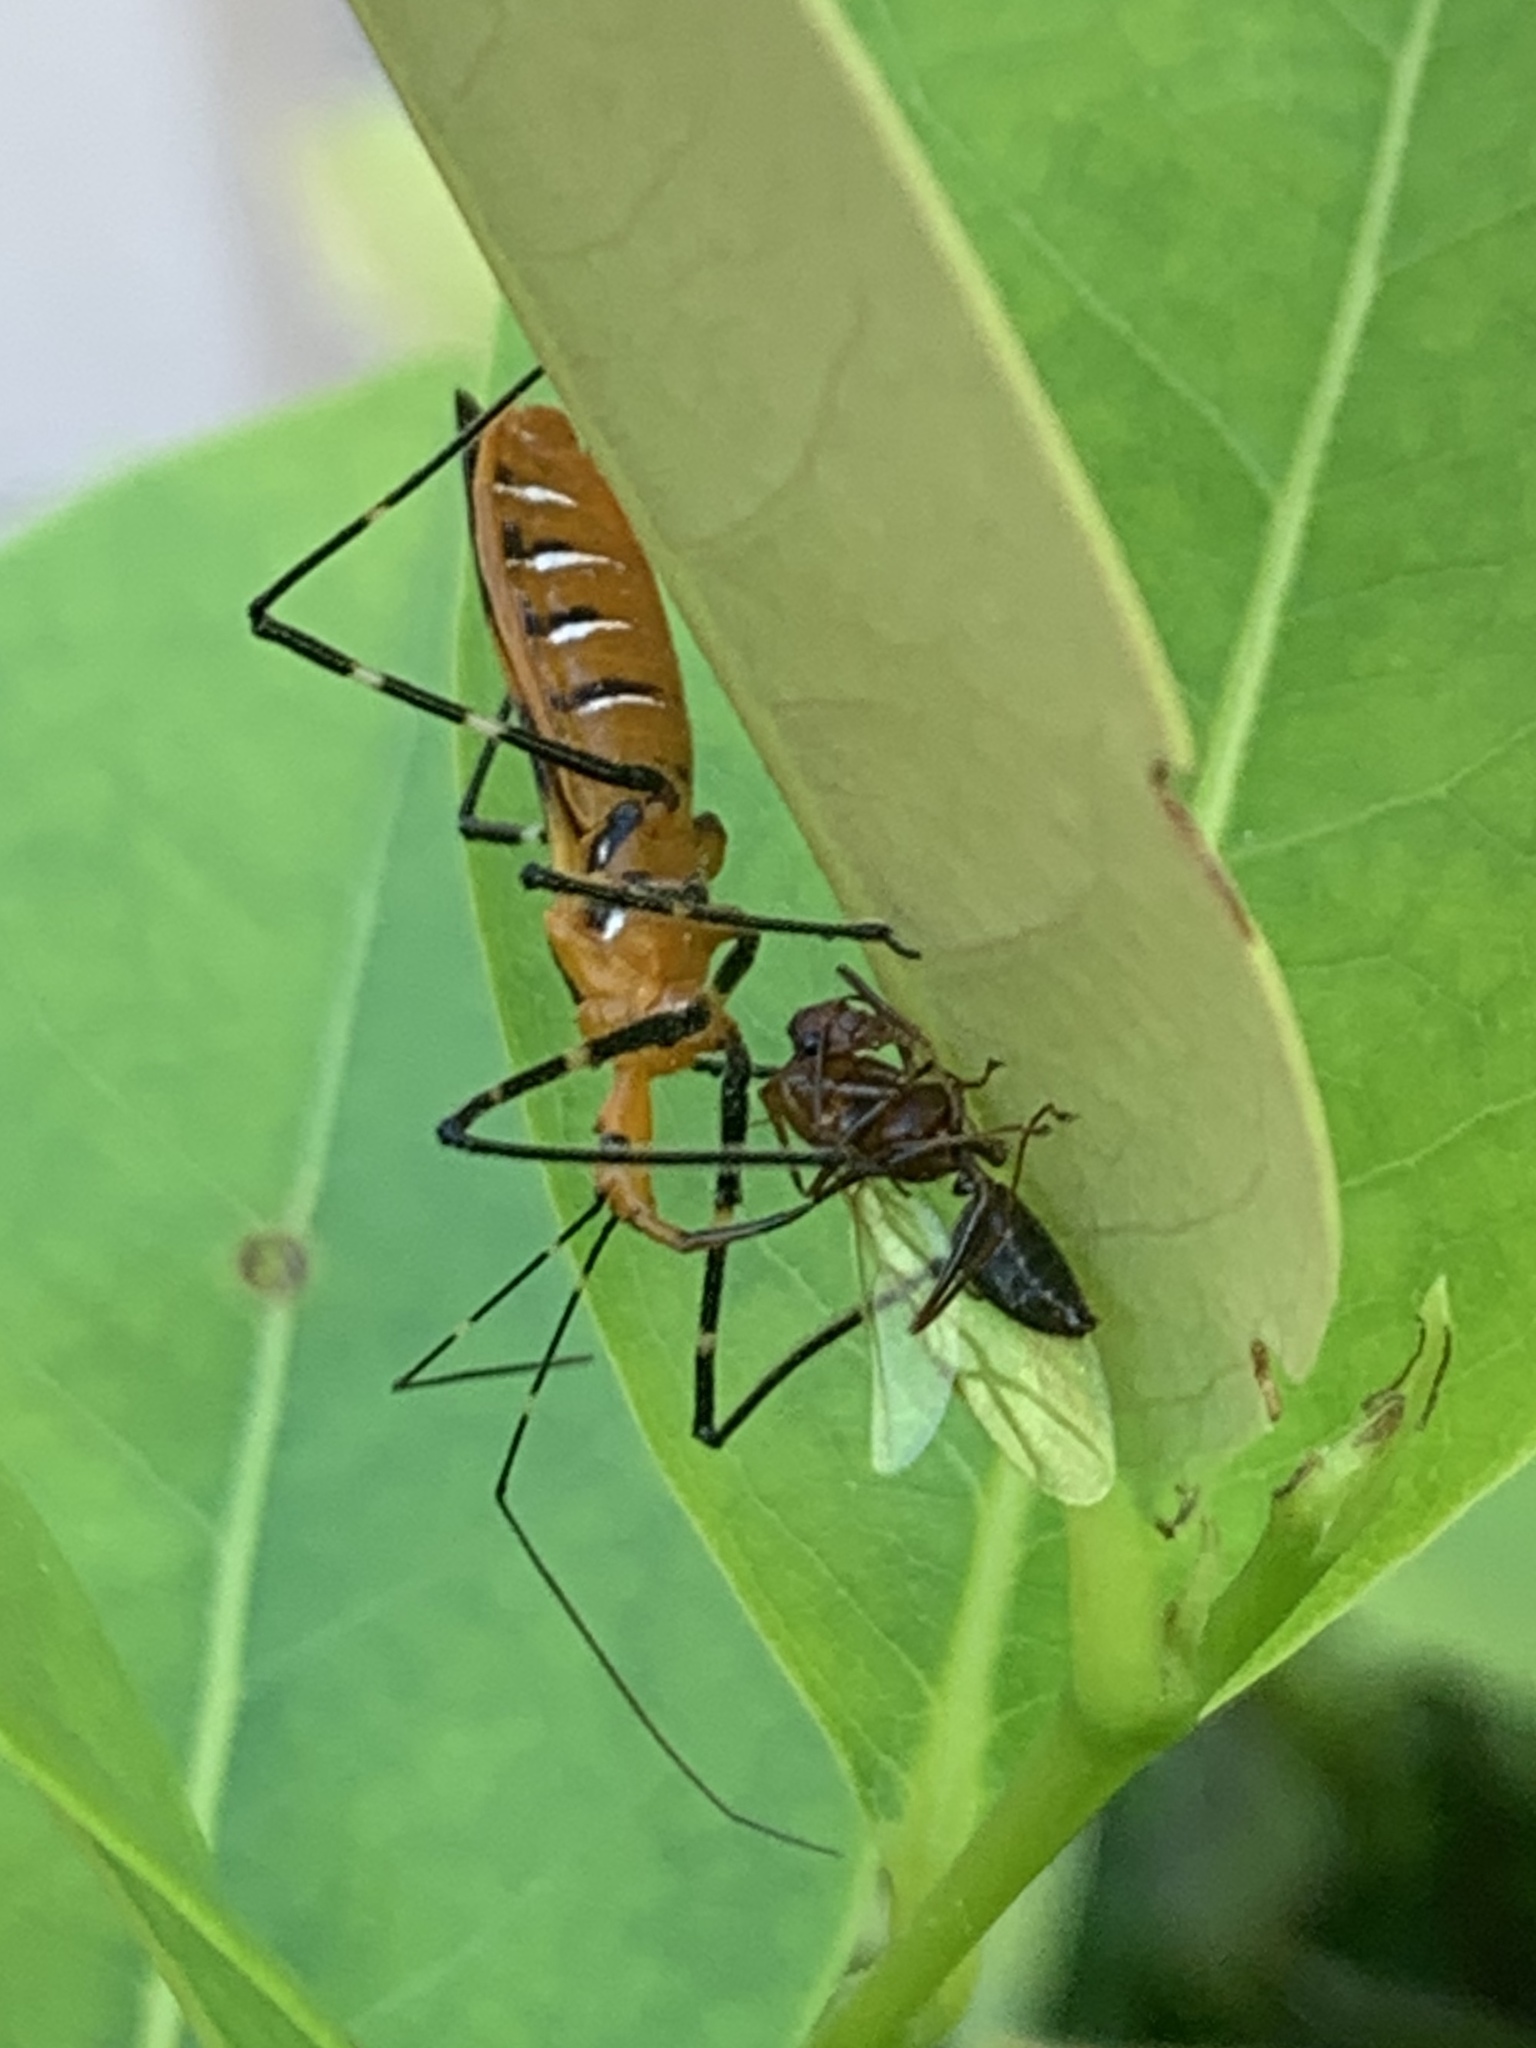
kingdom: Animalia
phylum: Arthropoda
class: Insecta
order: Hemiptera
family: Reduviidae
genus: Zelus
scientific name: Zelus longipes
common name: Milkweed assassin bug
